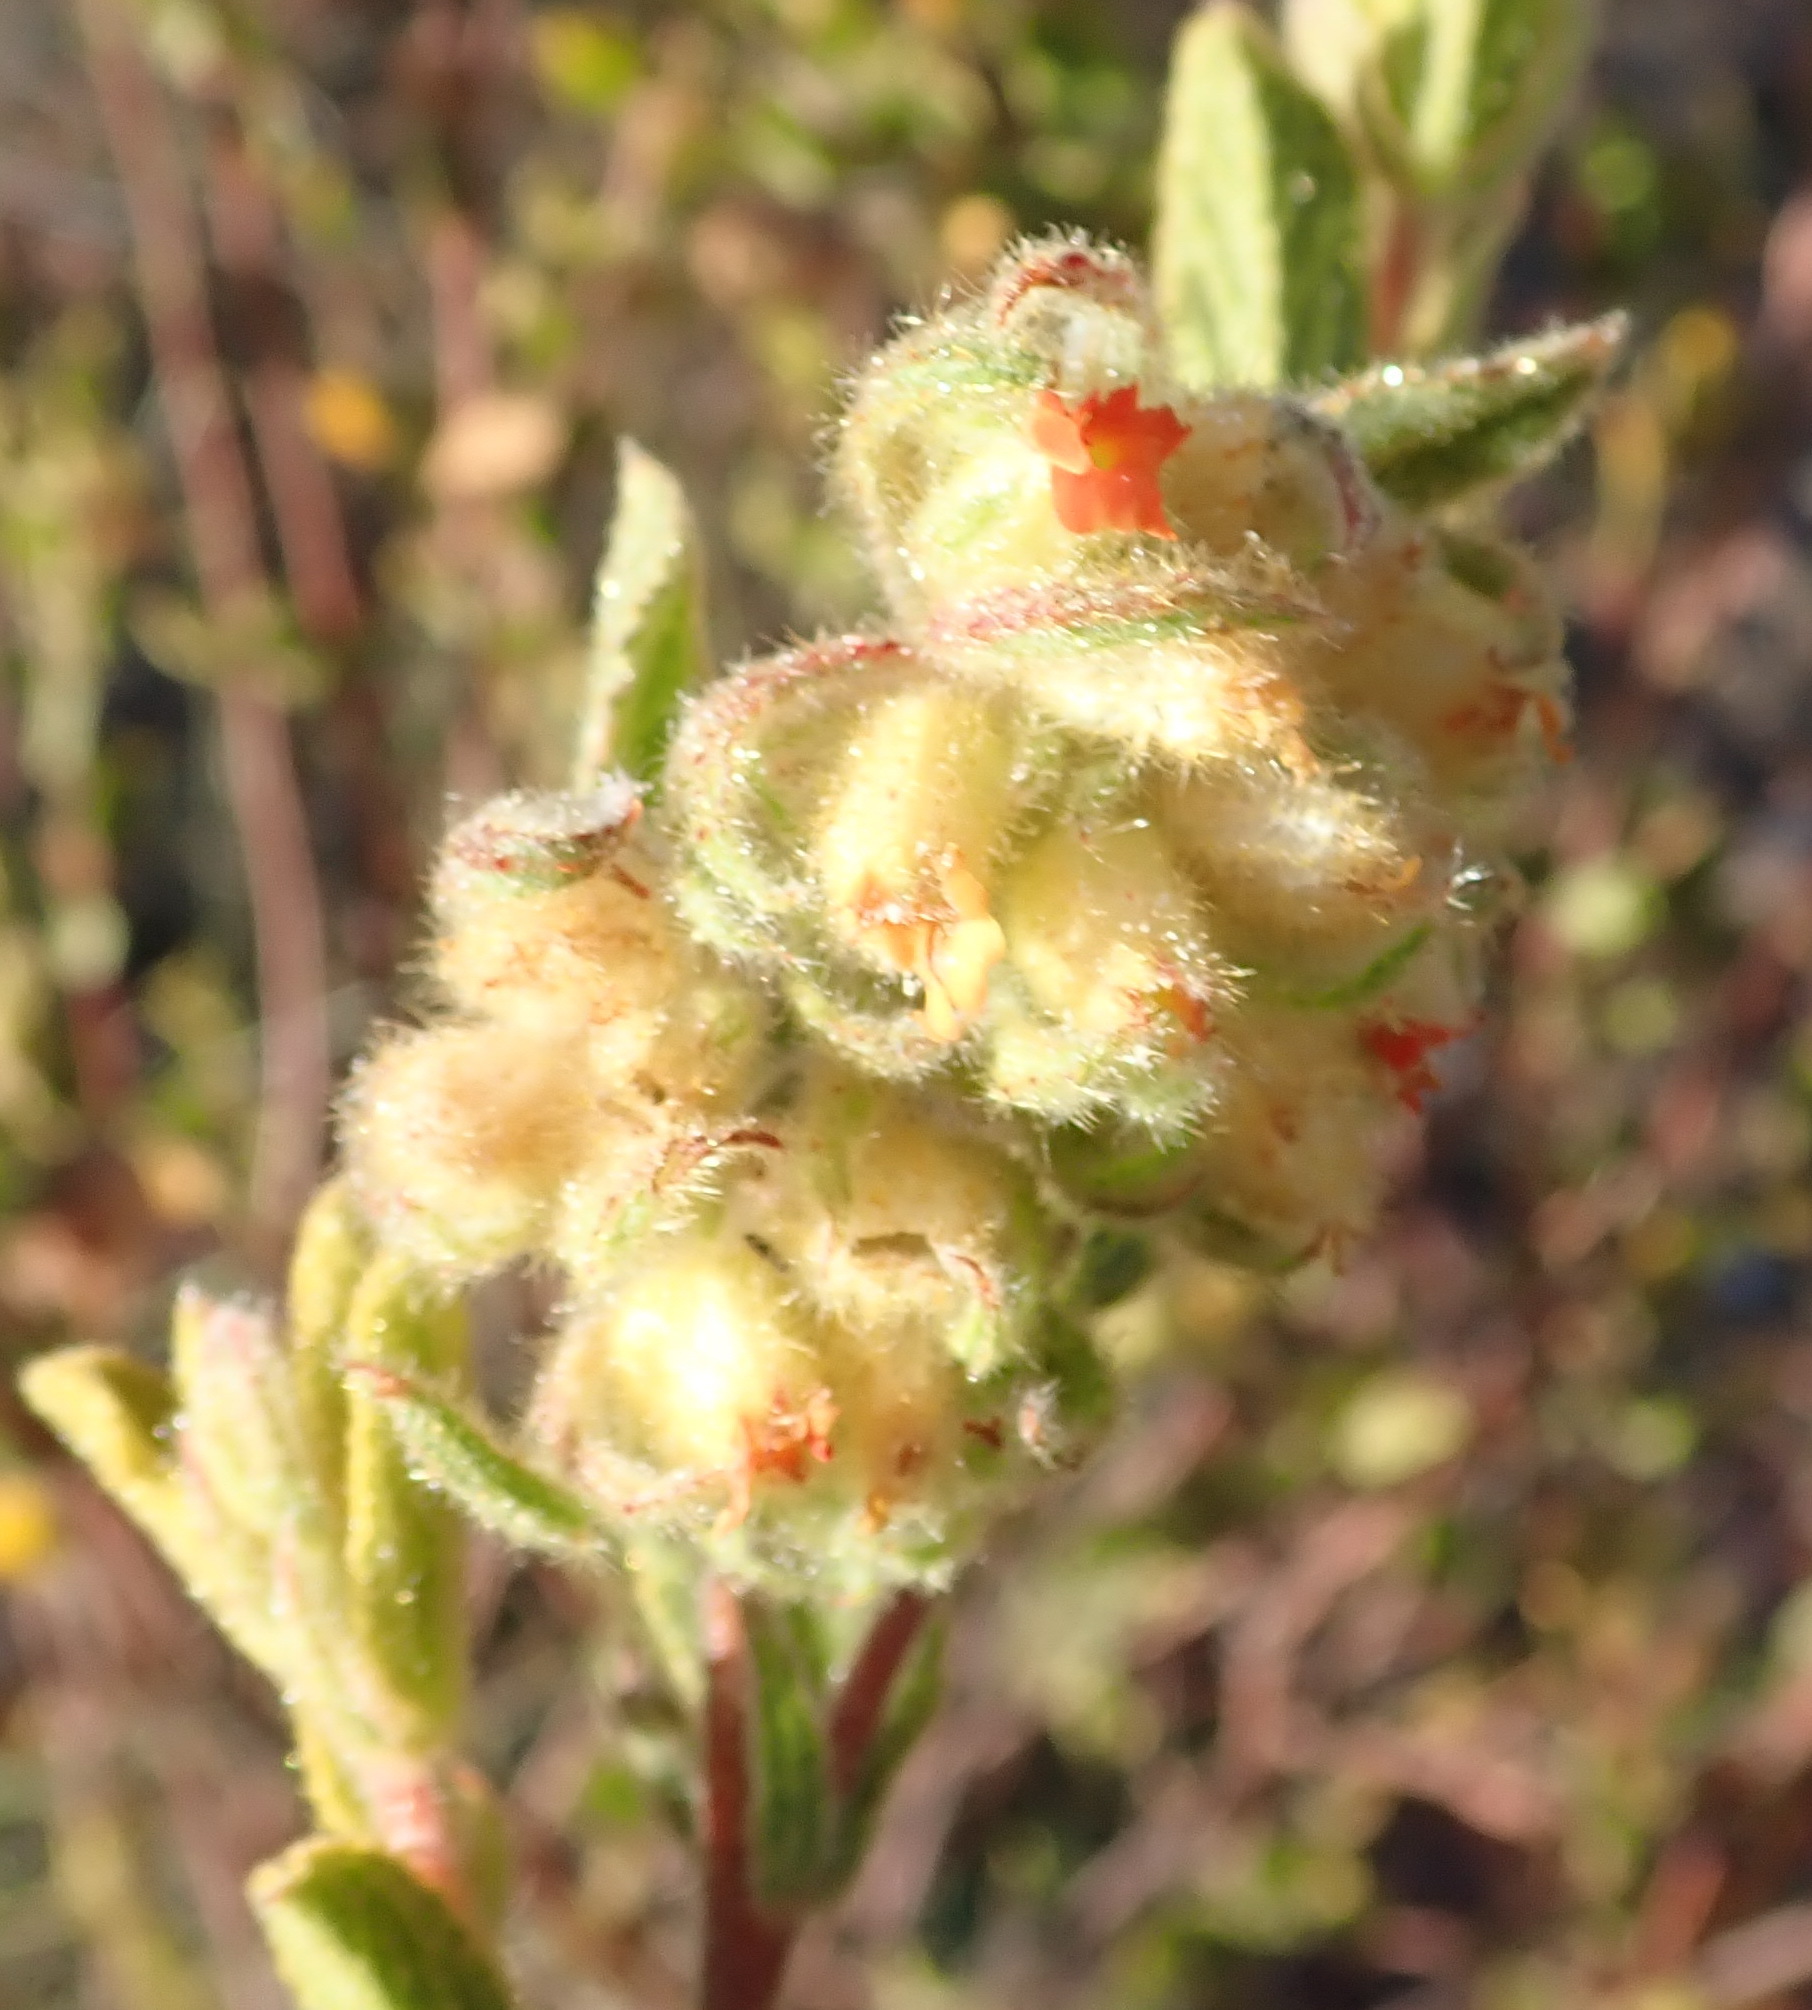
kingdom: Plantae
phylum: Tracheophyta
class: Magnoliopsida
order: Malvales
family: Malvaceae
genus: Hermannia
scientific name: Hermannia salviifolia
